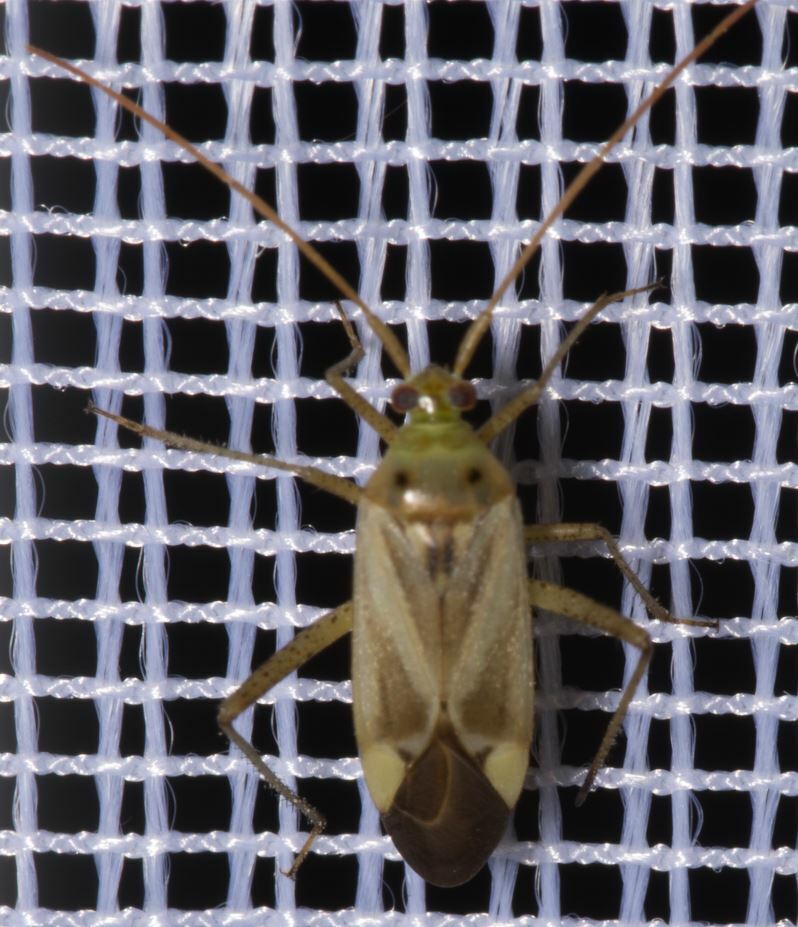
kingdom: Animalia
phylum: Arthropoda
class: Insecta
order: Hemiptera
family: Miridae
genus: Adelphocoris
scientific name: Adelphocoris lineolatus
